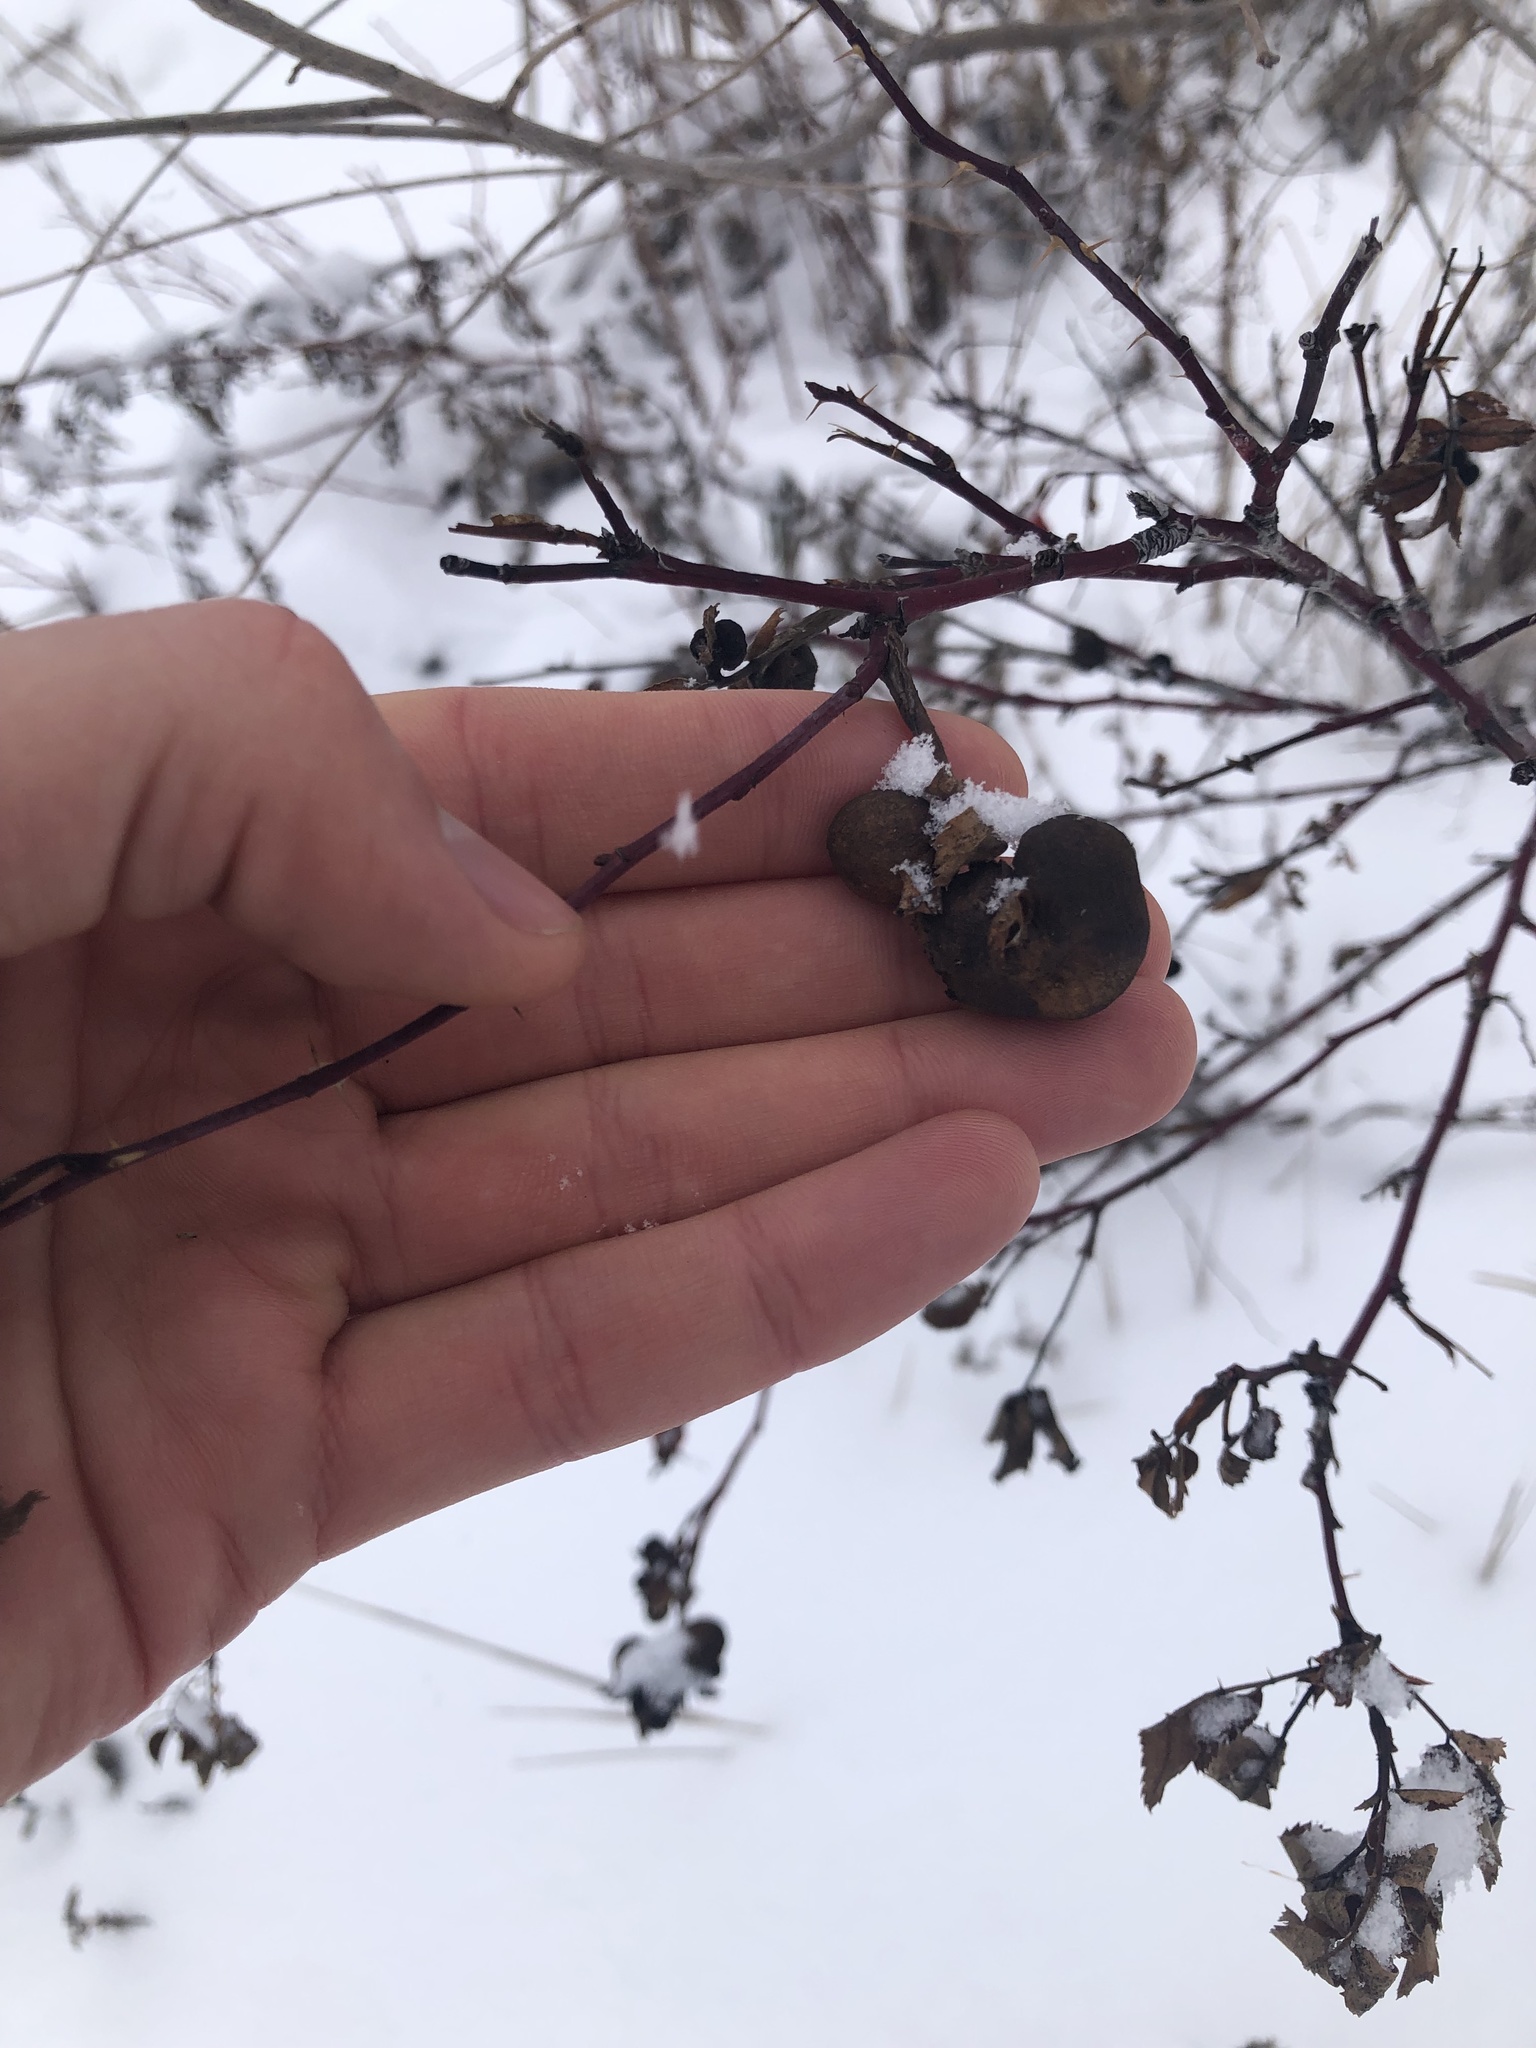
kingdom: Animalia
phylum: Arthropoda
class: Insecta
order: Hymenoptera
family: Cynipidae
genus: Diplolepis
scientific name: Diplolepis variabilis
